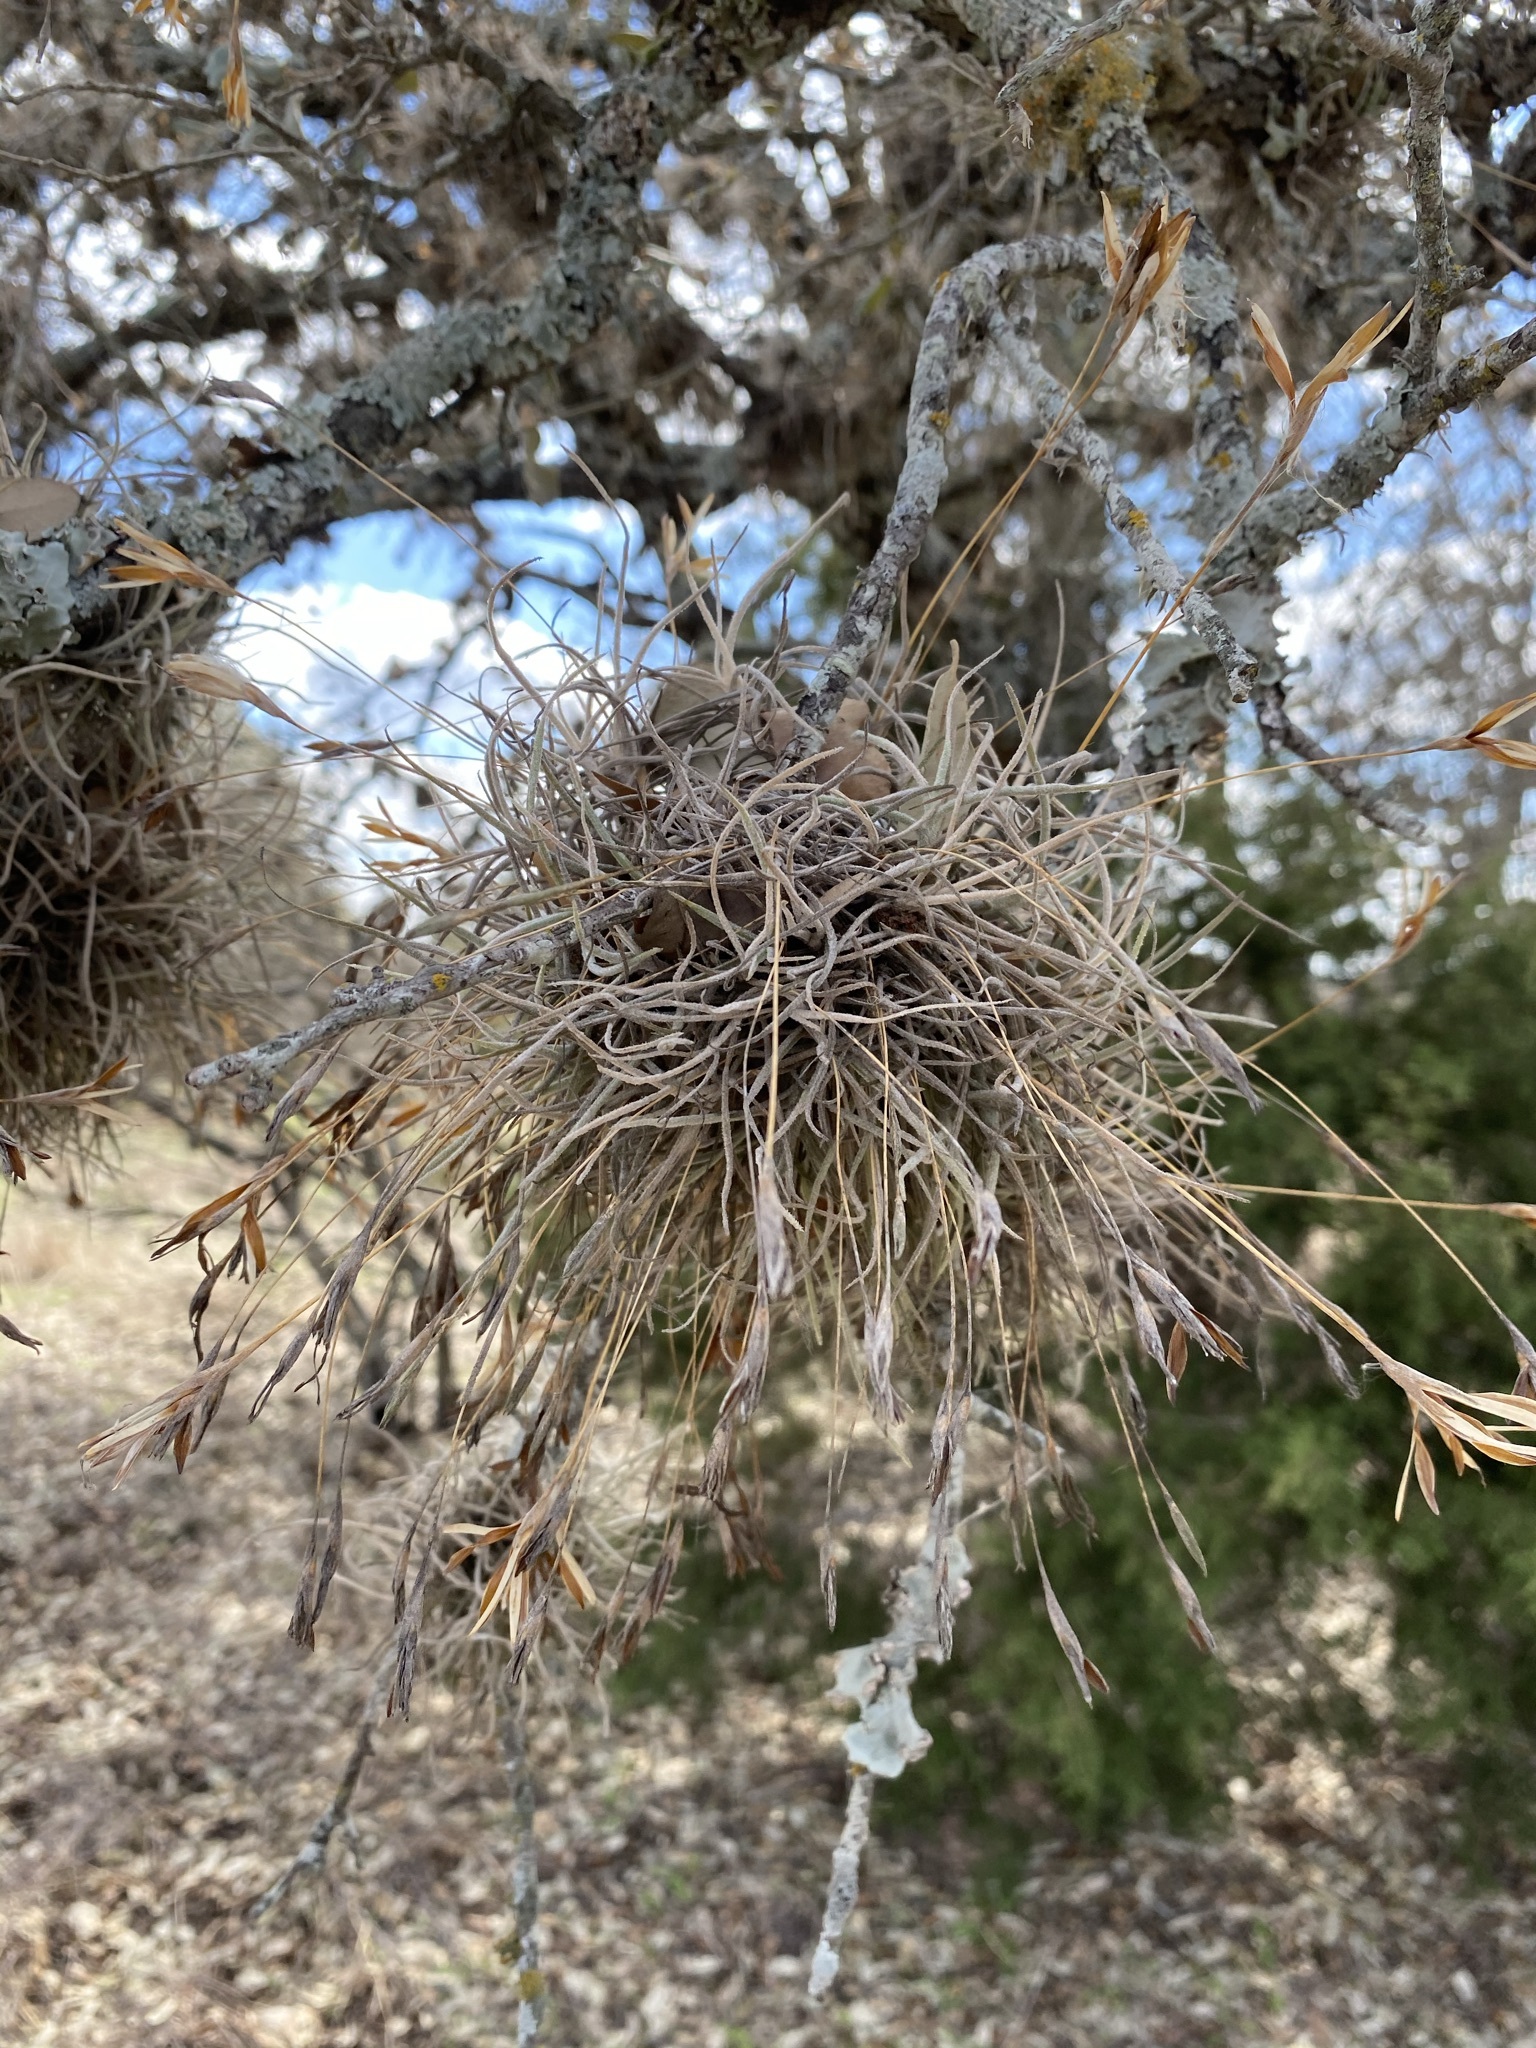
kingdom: Plantae
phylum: Tracheophyta
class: Liliopsida
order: Poales
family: Bromeliaceae
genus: Tillandsia
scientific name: Tillandsia recurvata
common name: Small ballmoss
